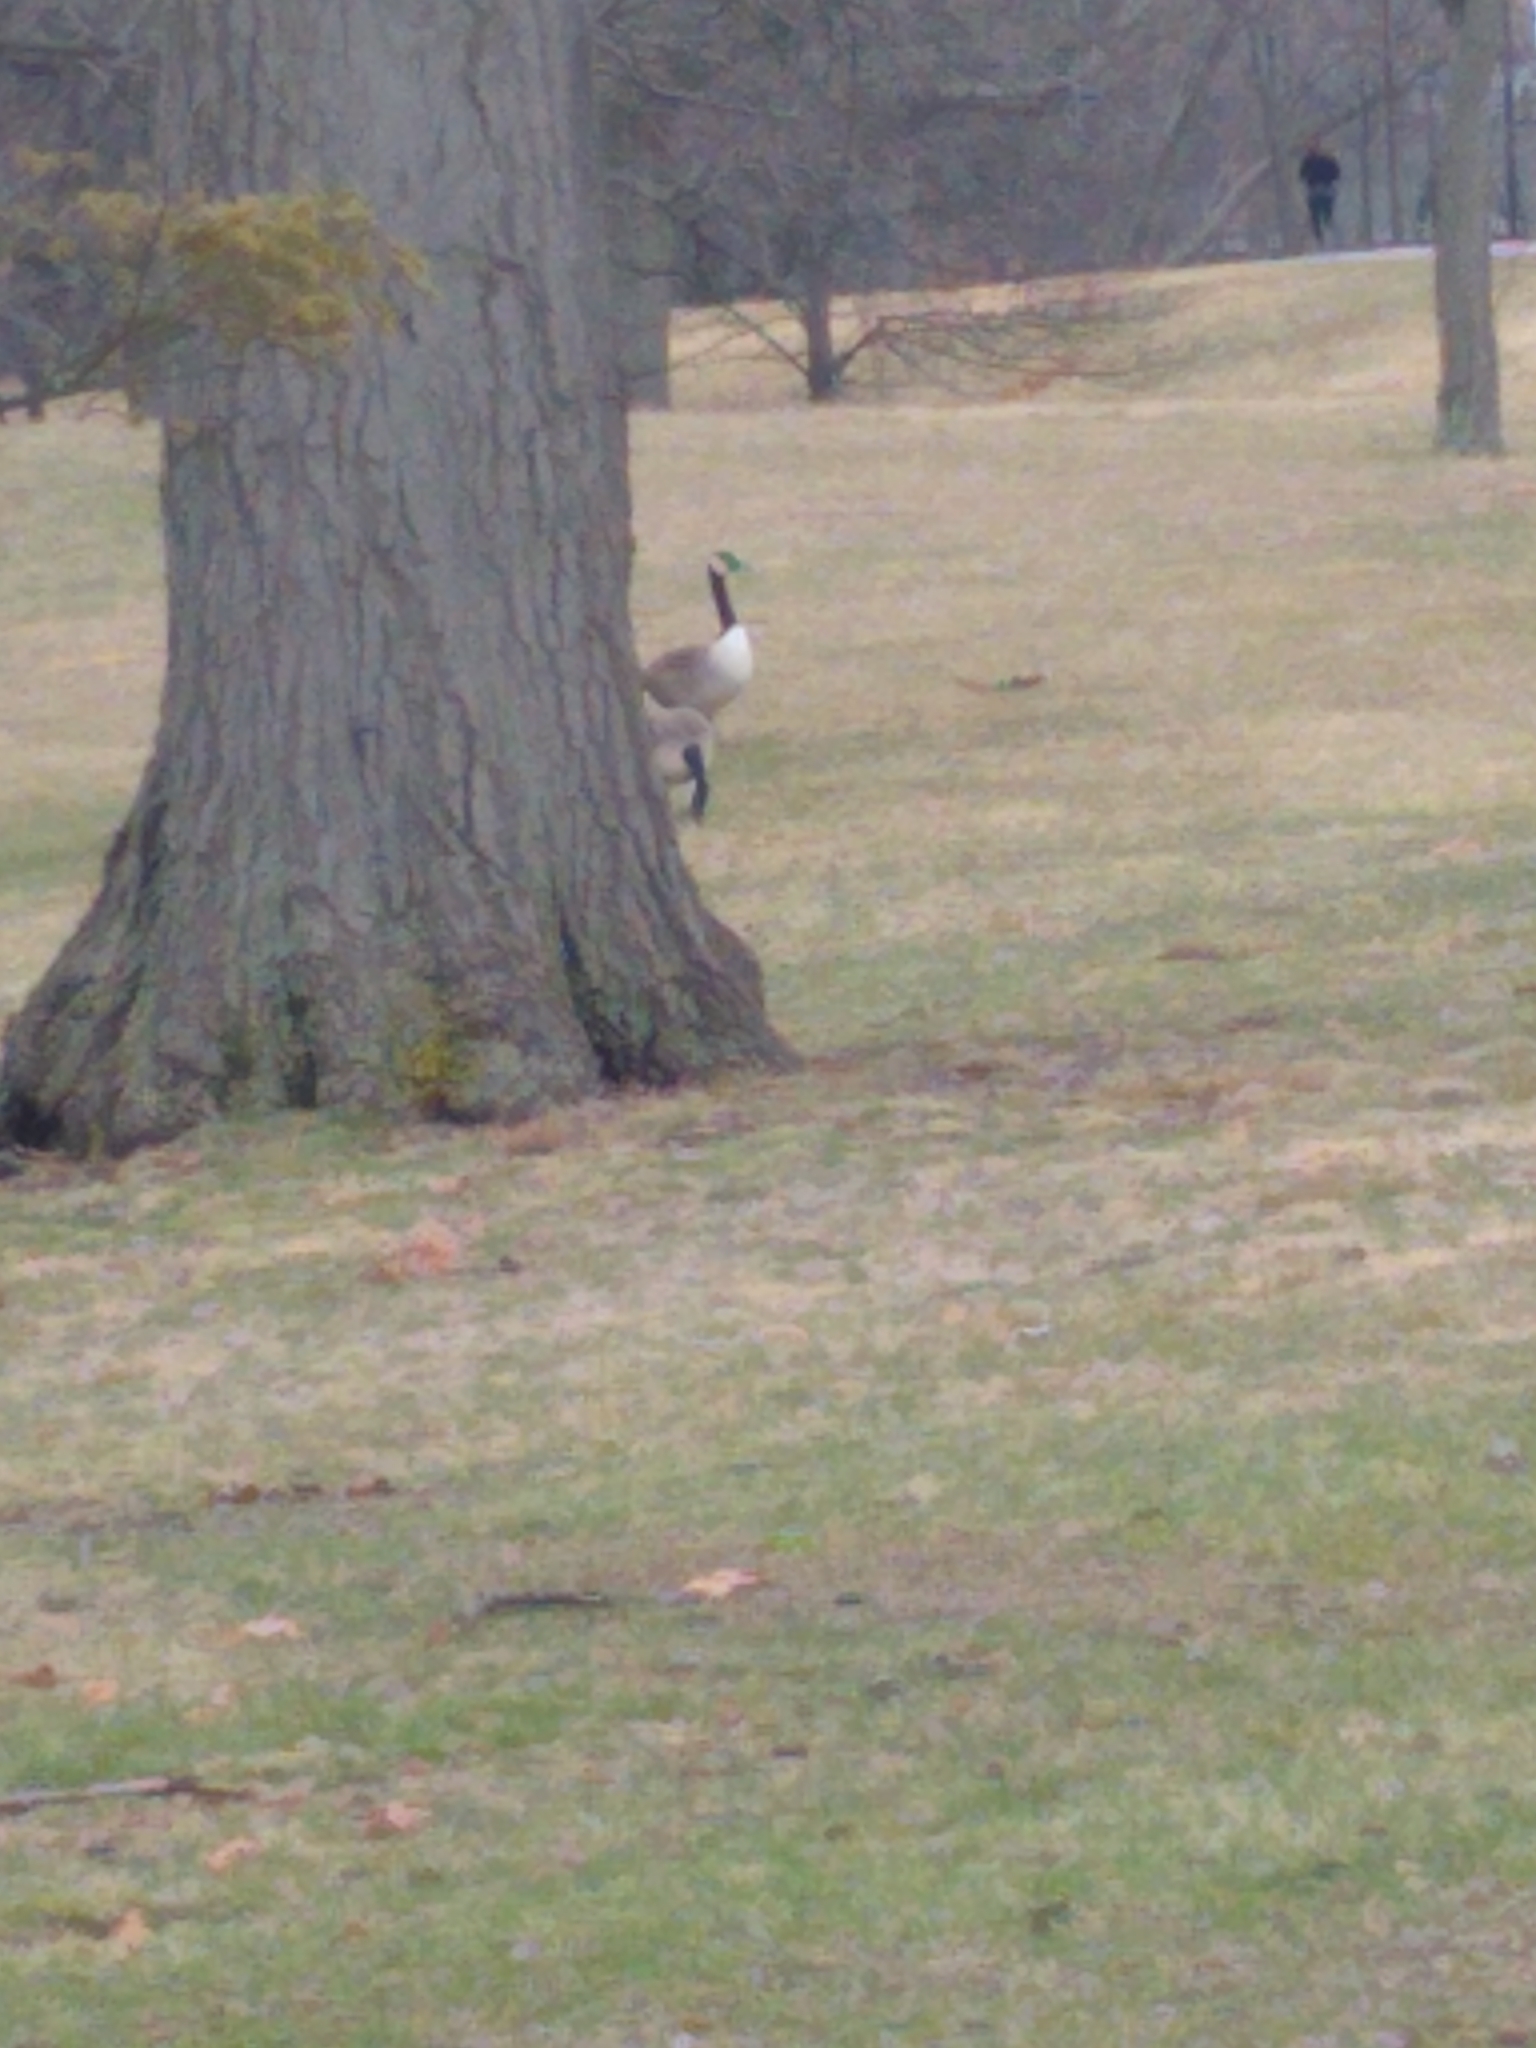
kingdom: Animalia
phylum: Chordata
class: Aves
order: Anseriformes
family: Anatidae
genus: Branta
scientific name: Branta canadensis
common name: Canada goose
